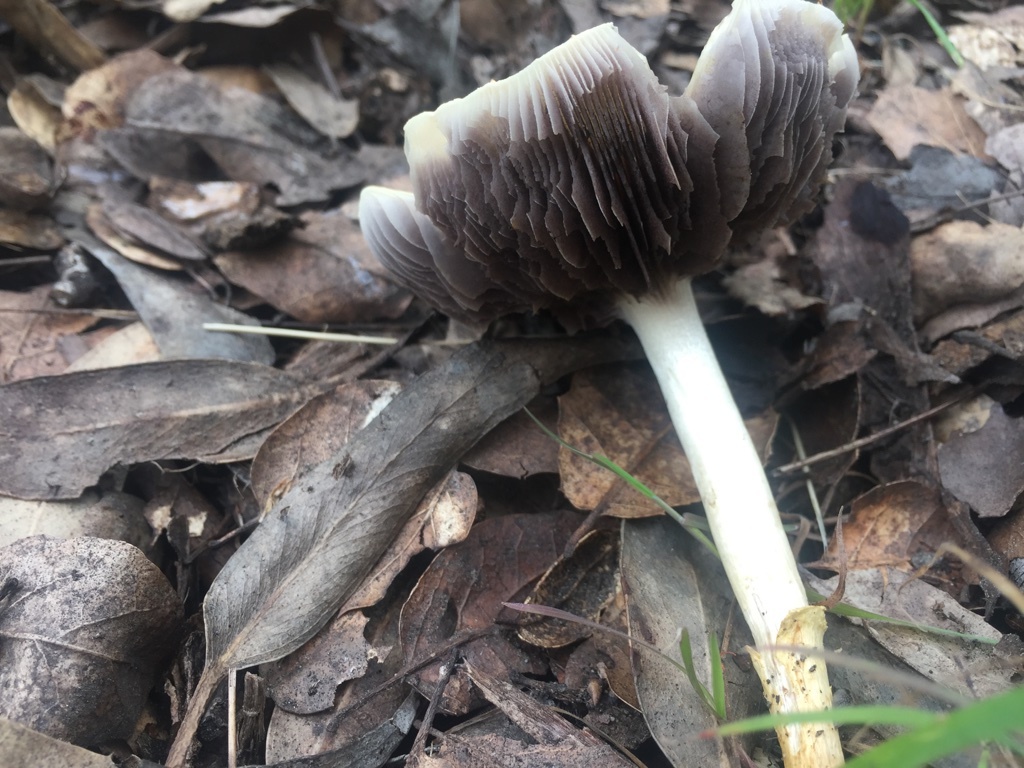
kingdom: Fungi
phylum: Basidiomycota
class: Agaricomycetes
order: Agaricales
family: Strophariaceae
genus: Leratiomyces
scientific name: Leratiomyces percevalii
